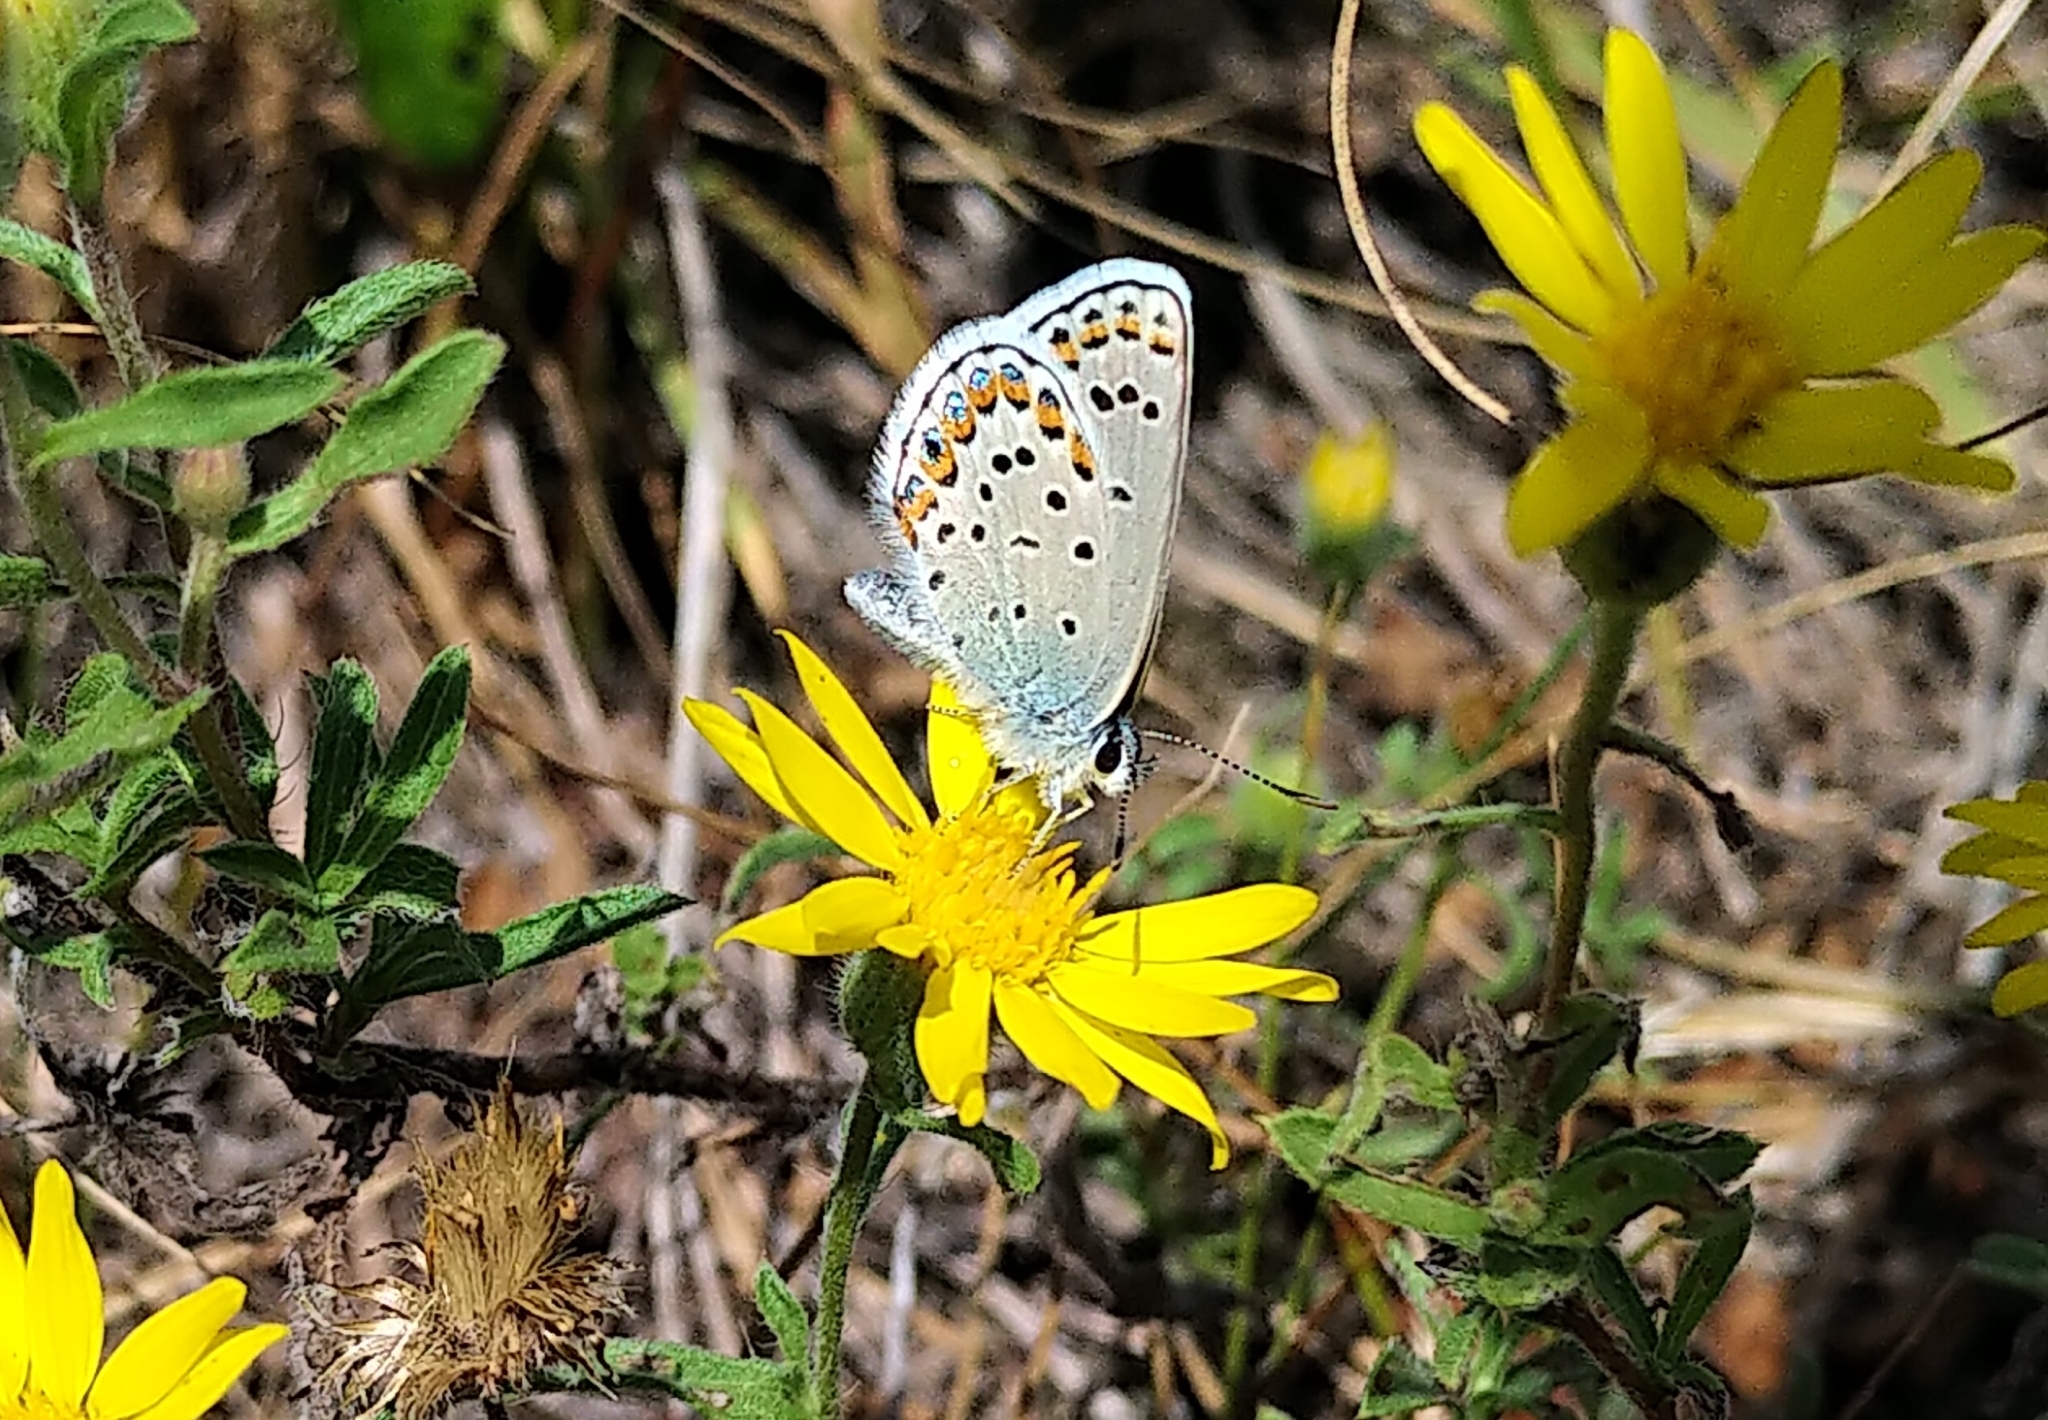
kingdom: Animalia
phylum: Arthropoda
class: Insecta
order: Lepidoptera
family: Lycaenidae
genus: Lycaeides
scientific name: Lycaeides melissa
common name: Melissa blue
